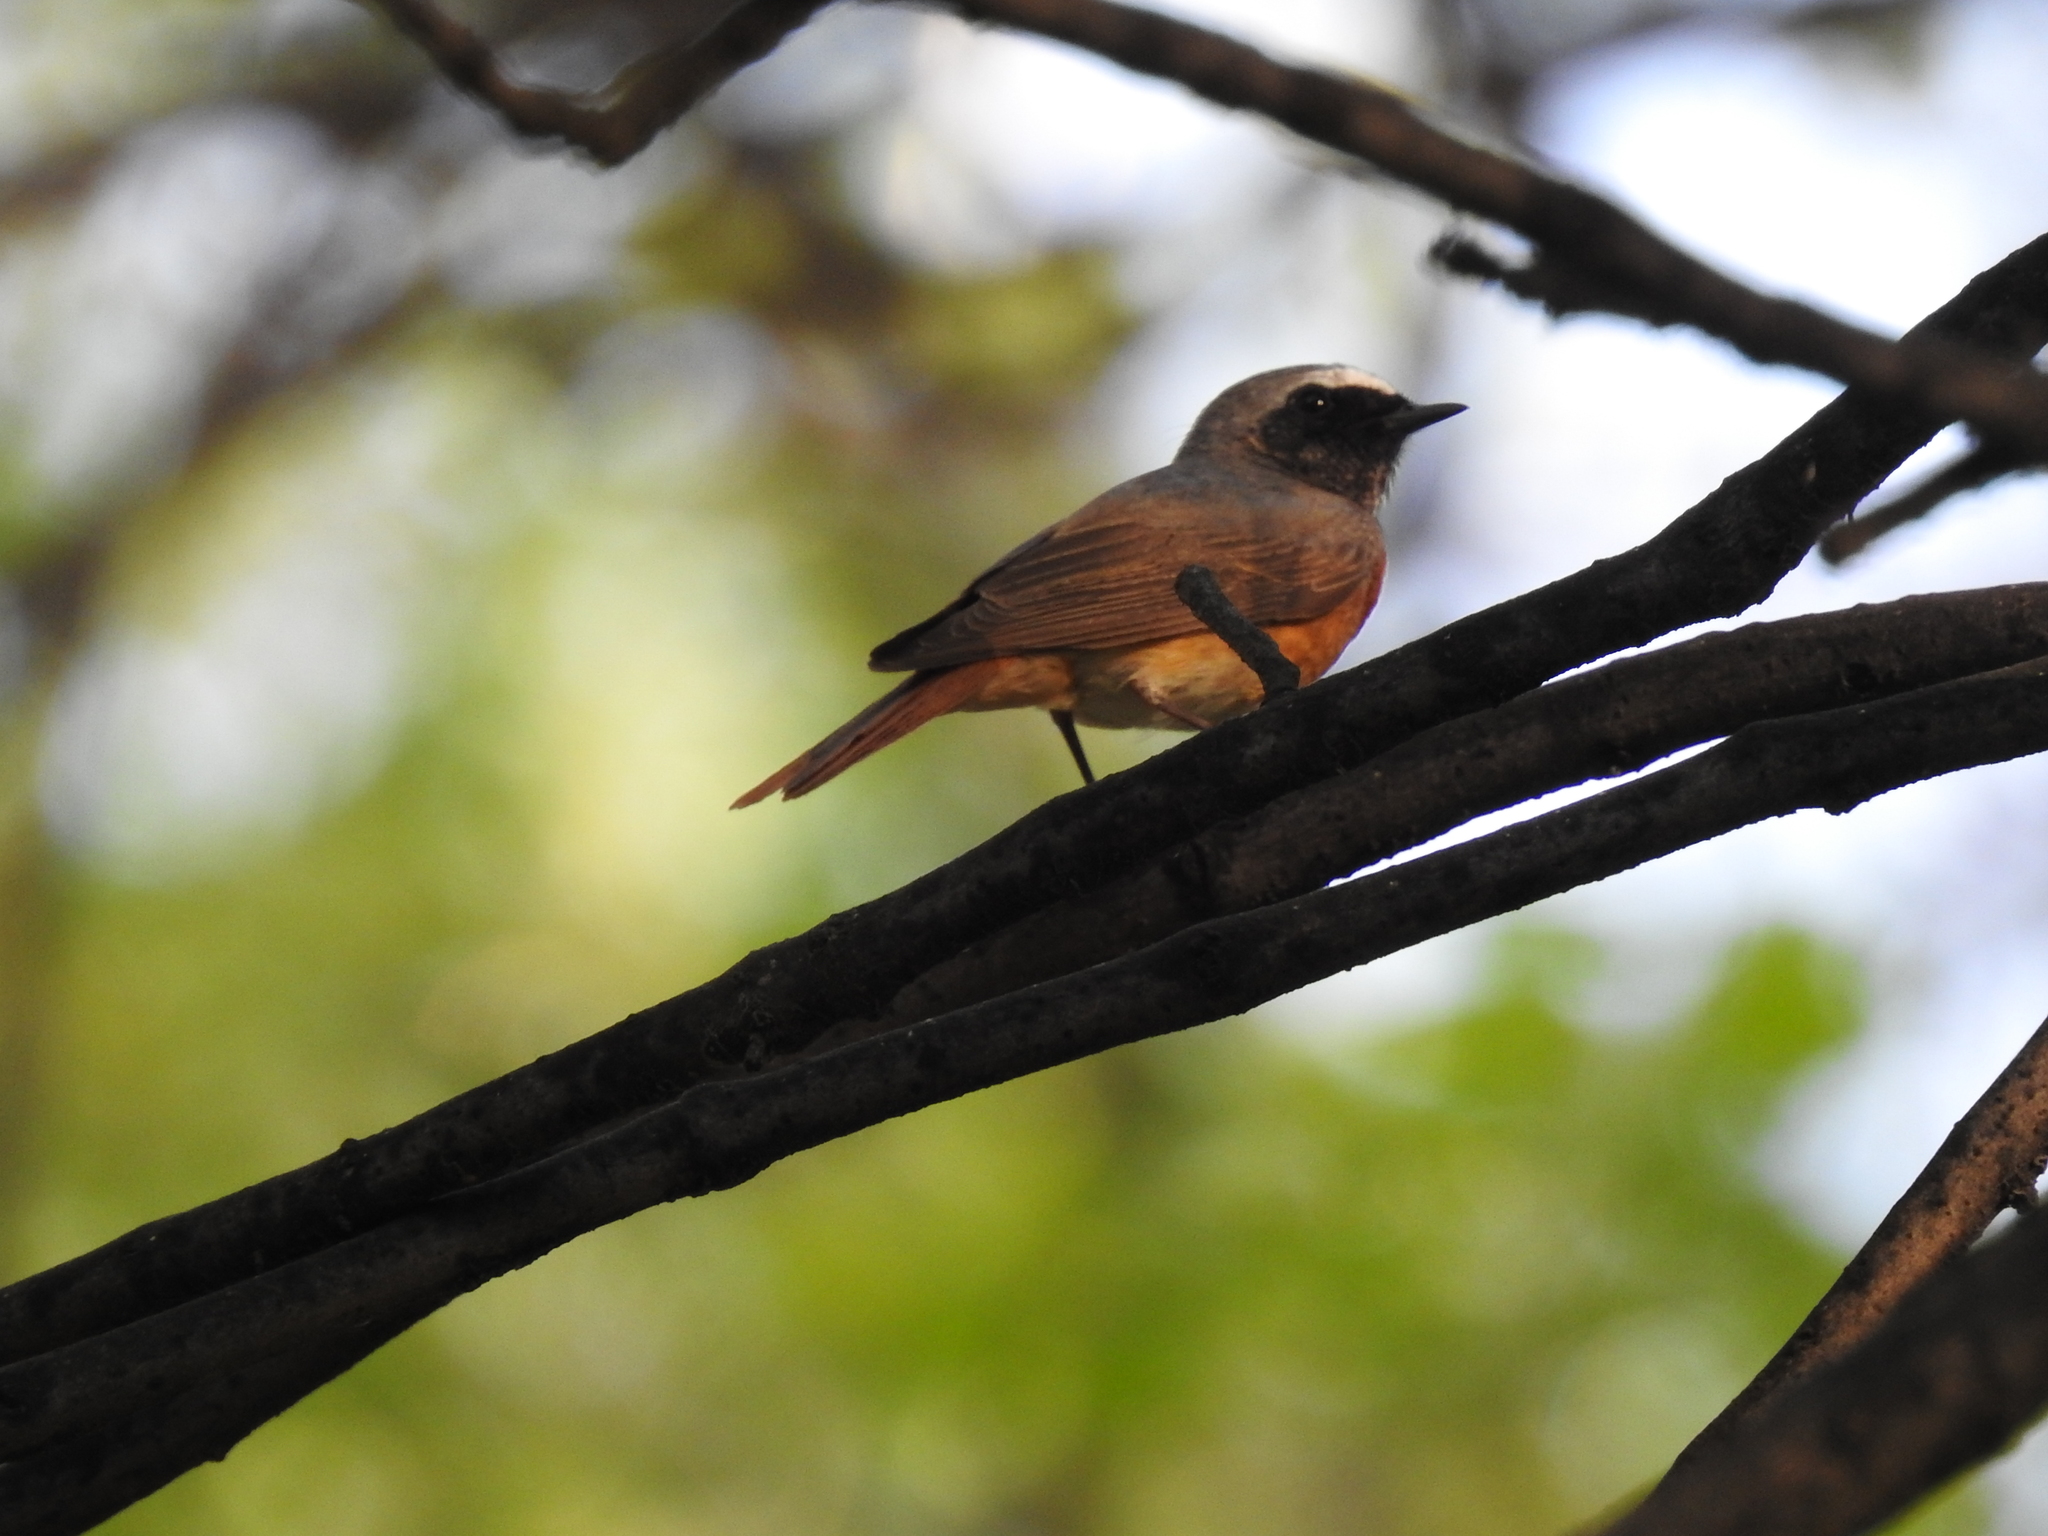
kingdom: Animalia
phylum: Chordata
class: Aves
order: Passeriformes
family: Muscicapidae
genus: Phoenicurus
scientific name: Phoenicurus phoenicurus
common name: Common redstart
